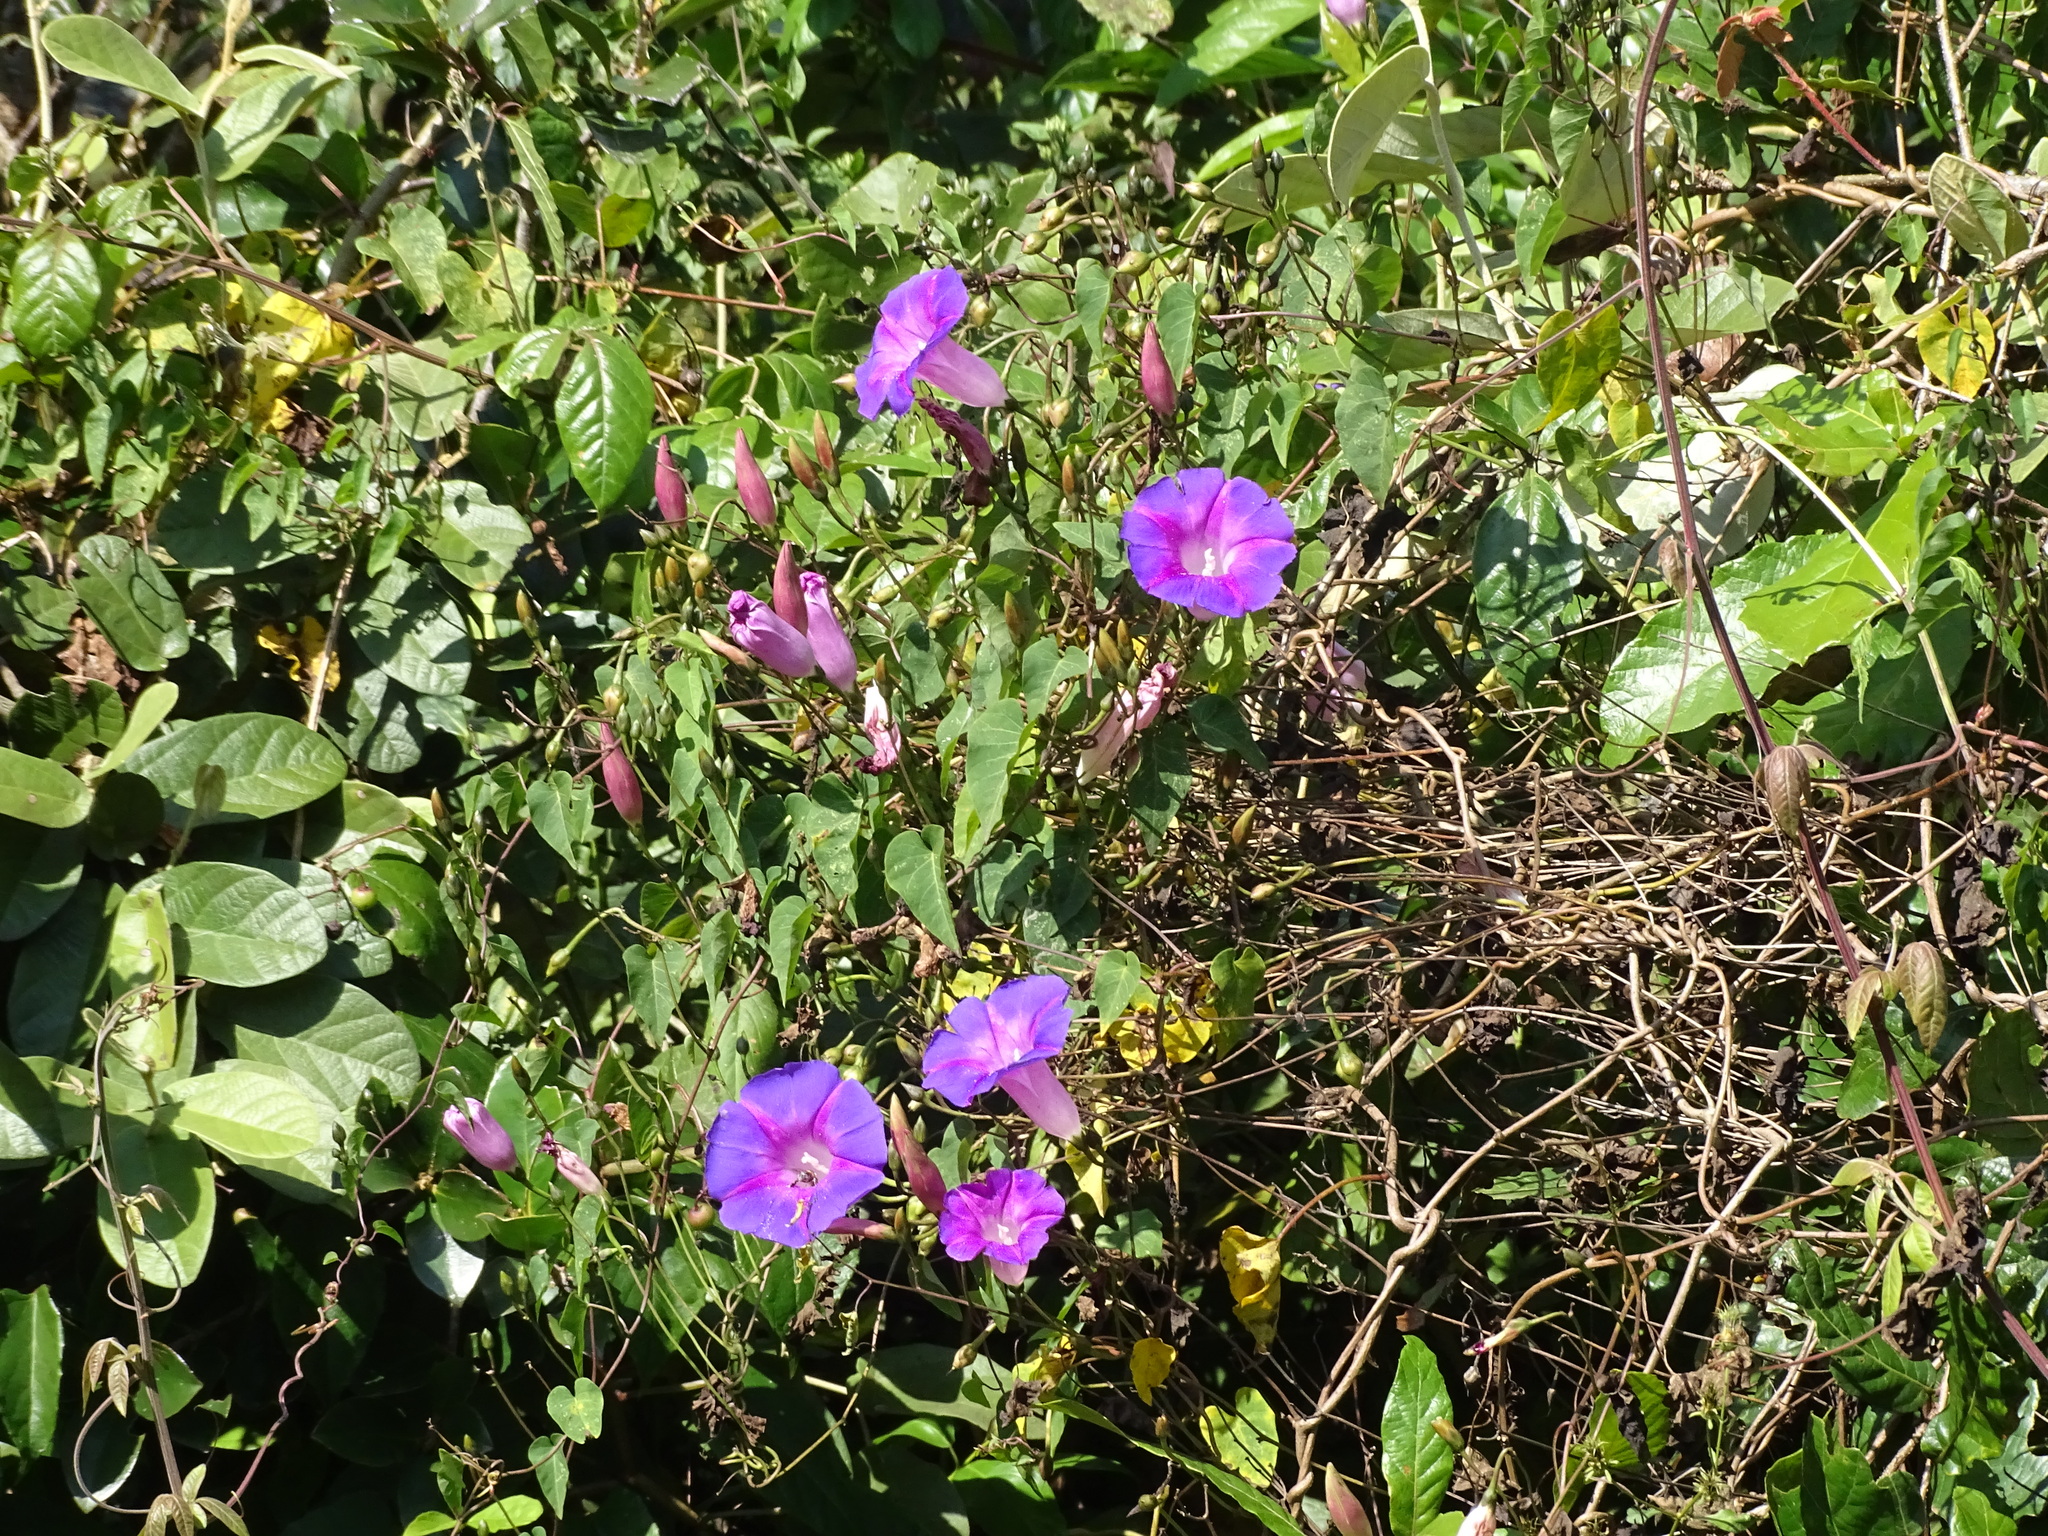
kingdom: Plantae
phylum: Tracheophyta
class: Magnoliopsida
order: Solanales
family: Convolvulaceae
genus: Ipomoea
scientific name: Ipomoea orizabensis
